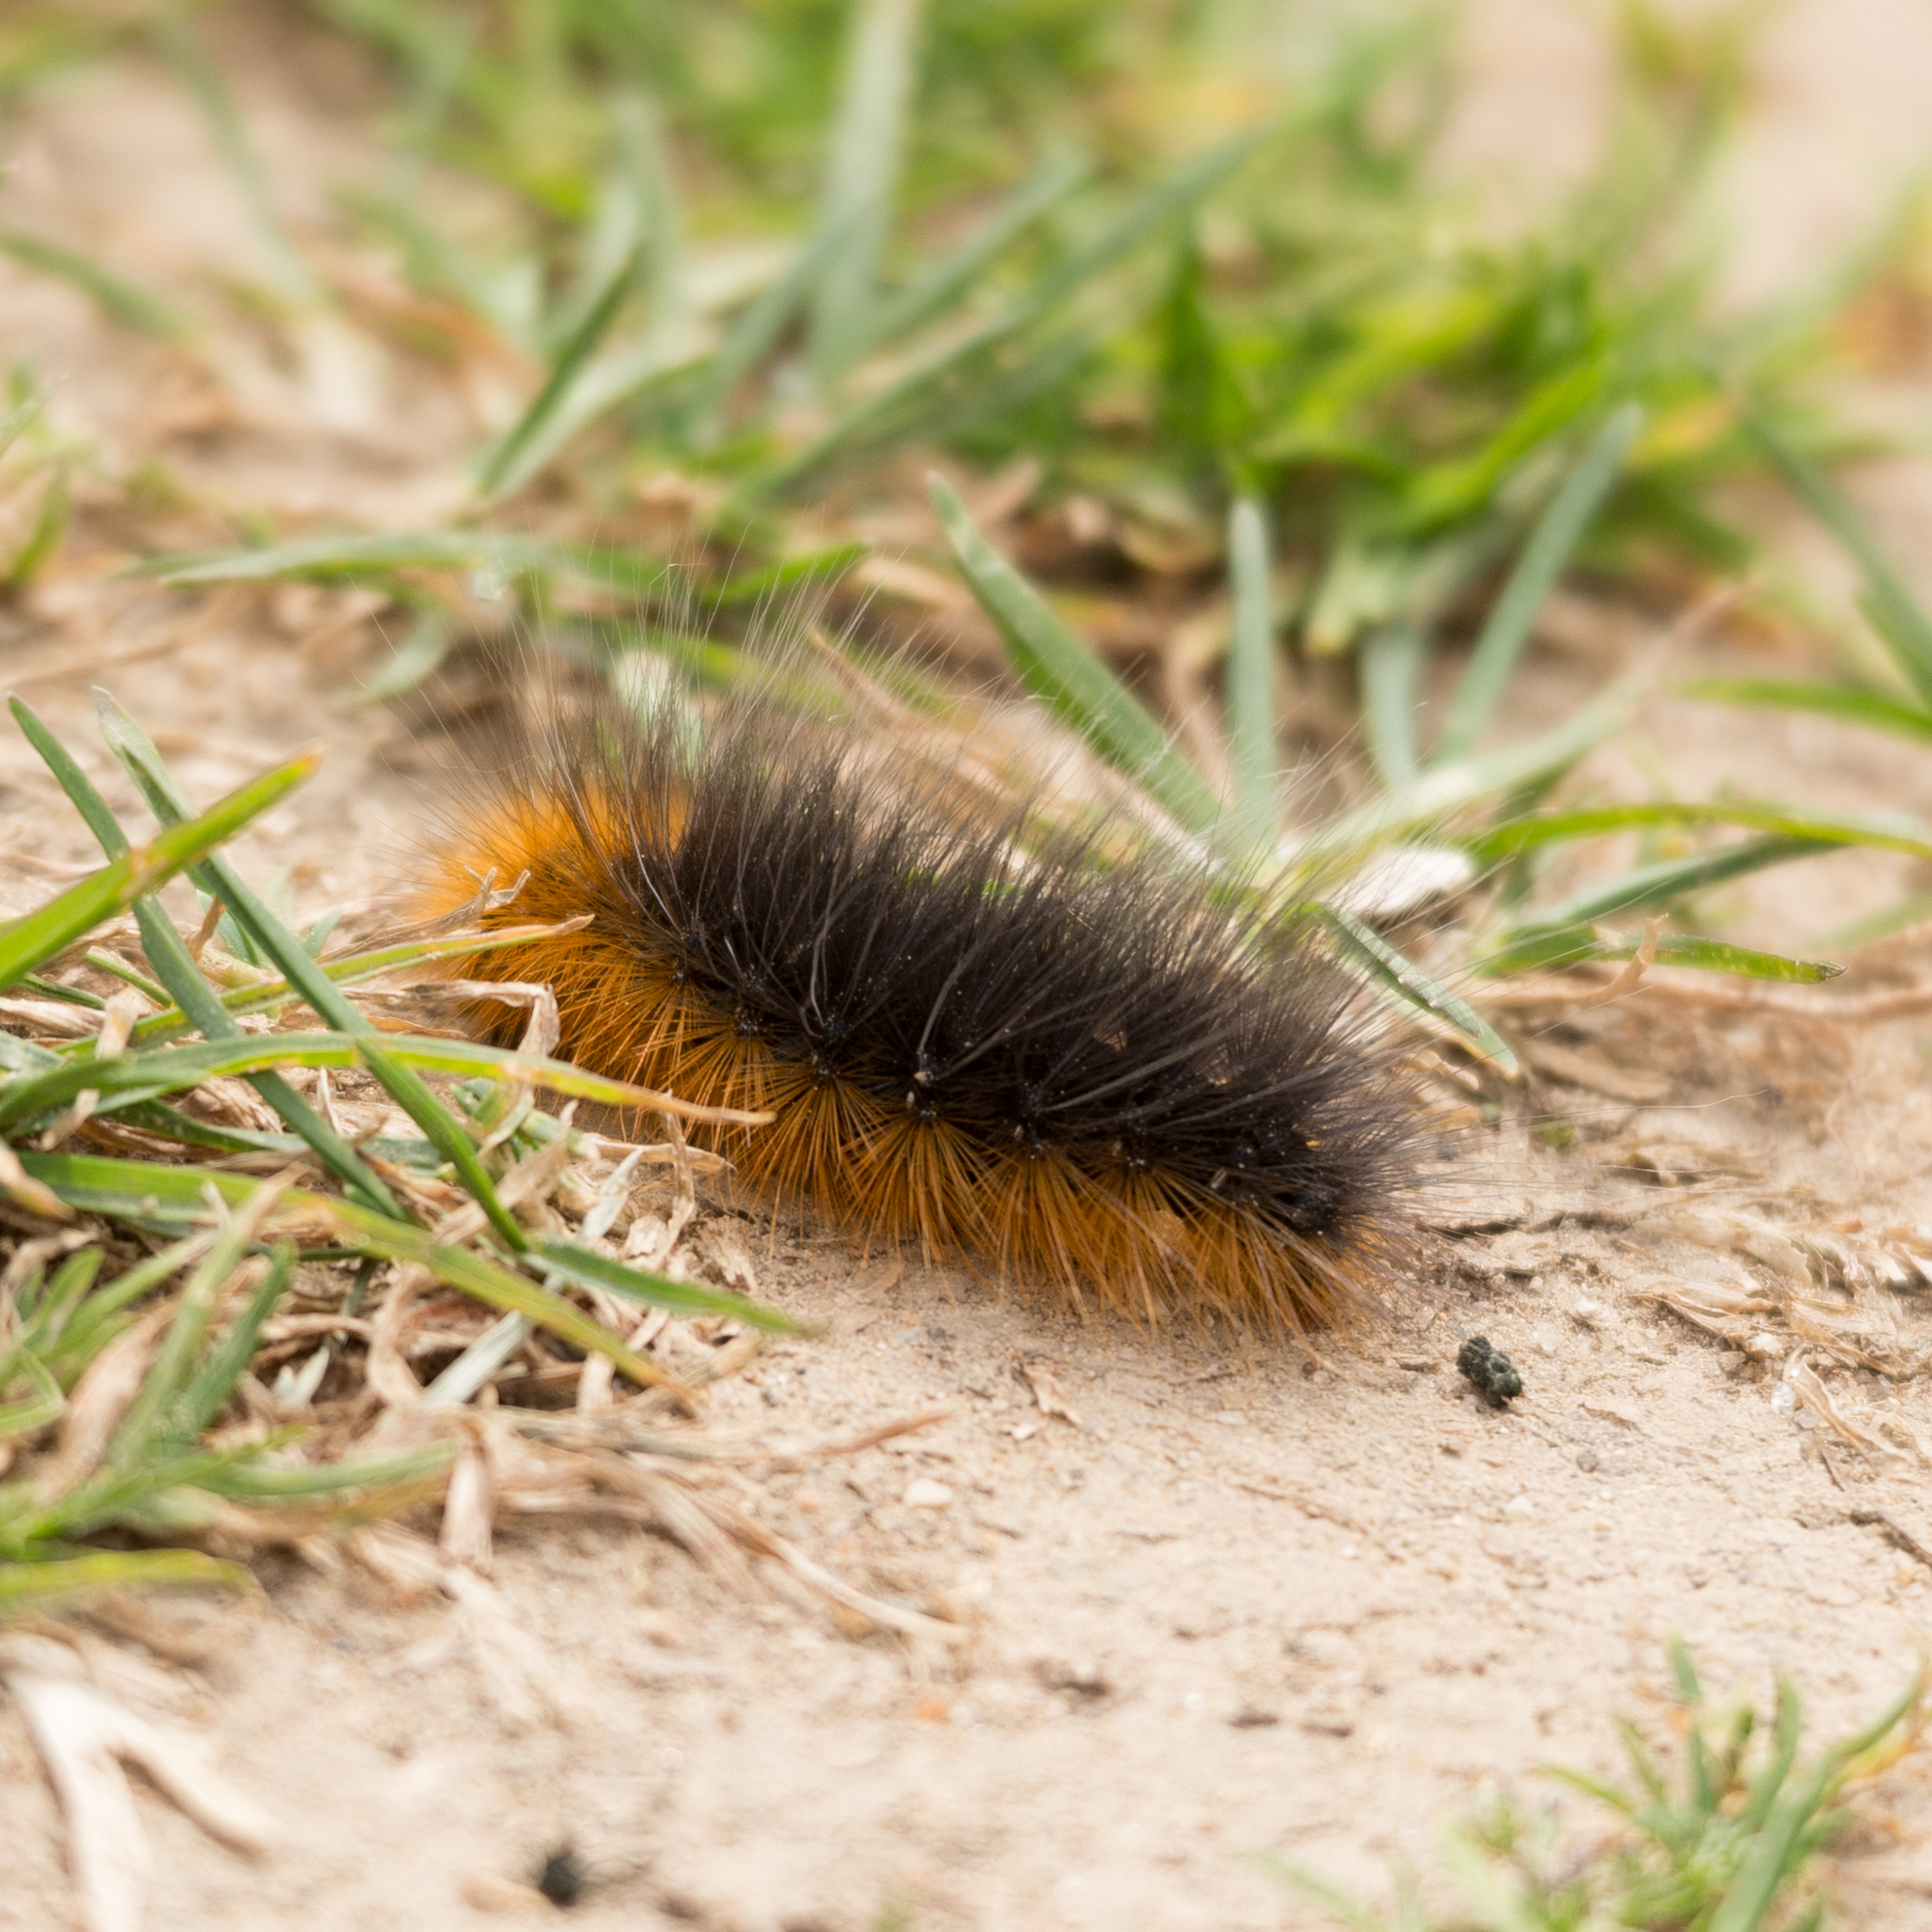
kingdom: Animalia
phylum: Arthropoda
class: Insecta
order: Lepidoptera
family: Erebidae
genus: Arctia
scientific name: Arctia caja
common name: Garden tiger
